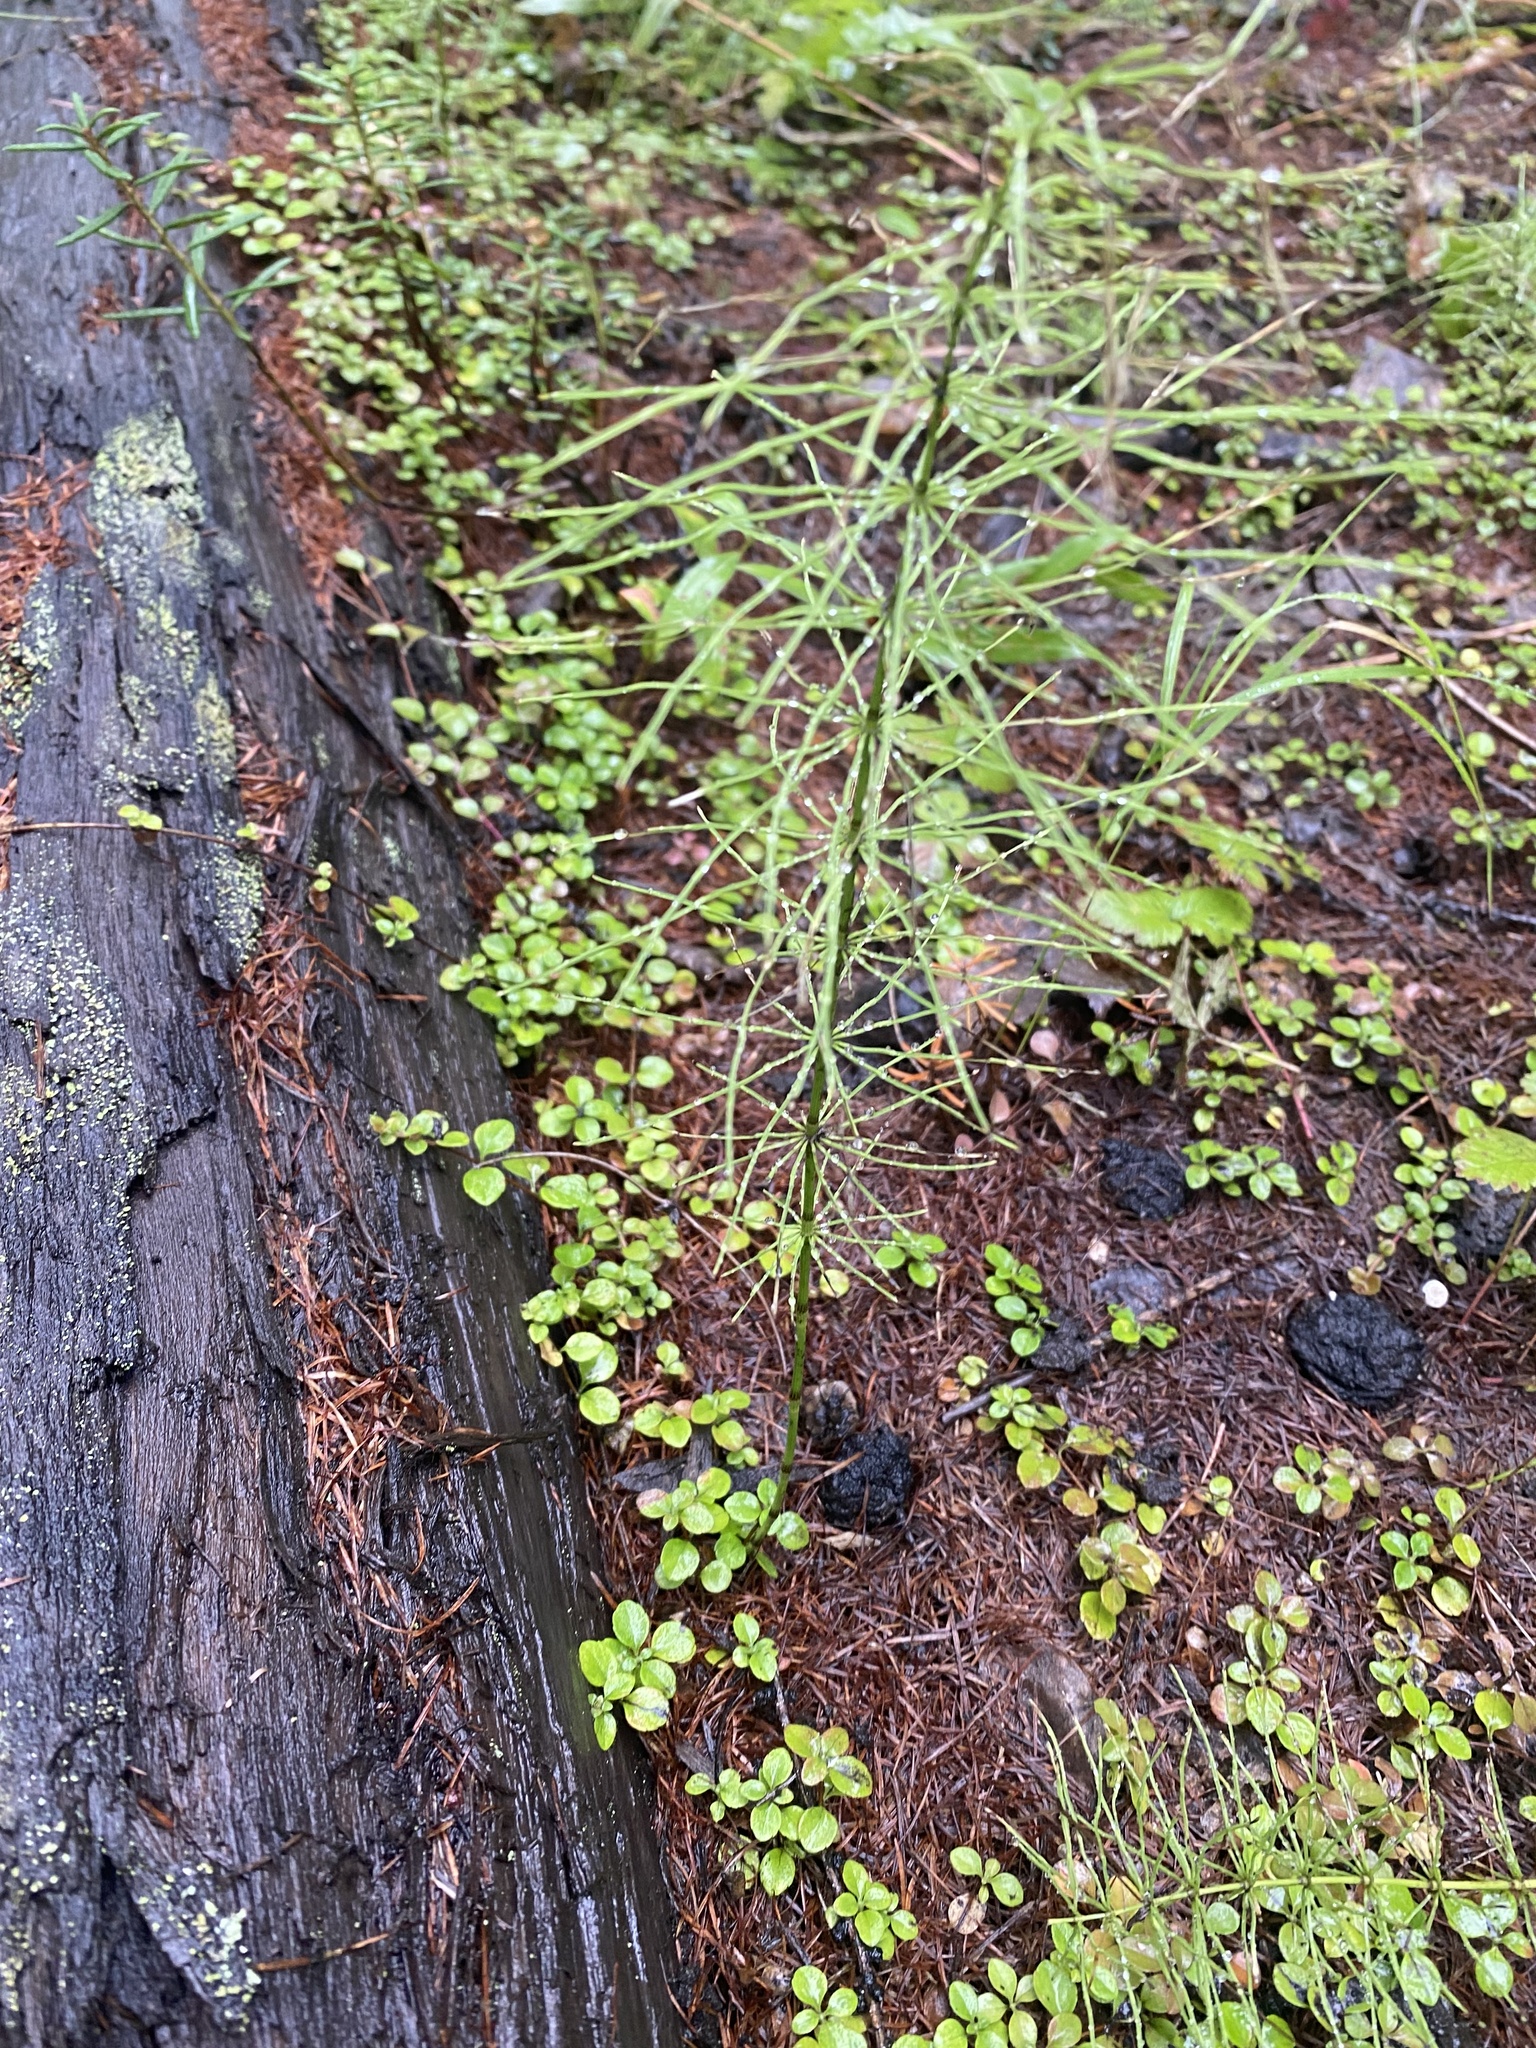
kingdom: Plantae
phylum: Tracheophyta
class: Polypodiopsida
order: Equisetales
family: Equisetaceae
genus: Equisetum
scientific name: Equisetum pratense
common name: Meadow horsetail
